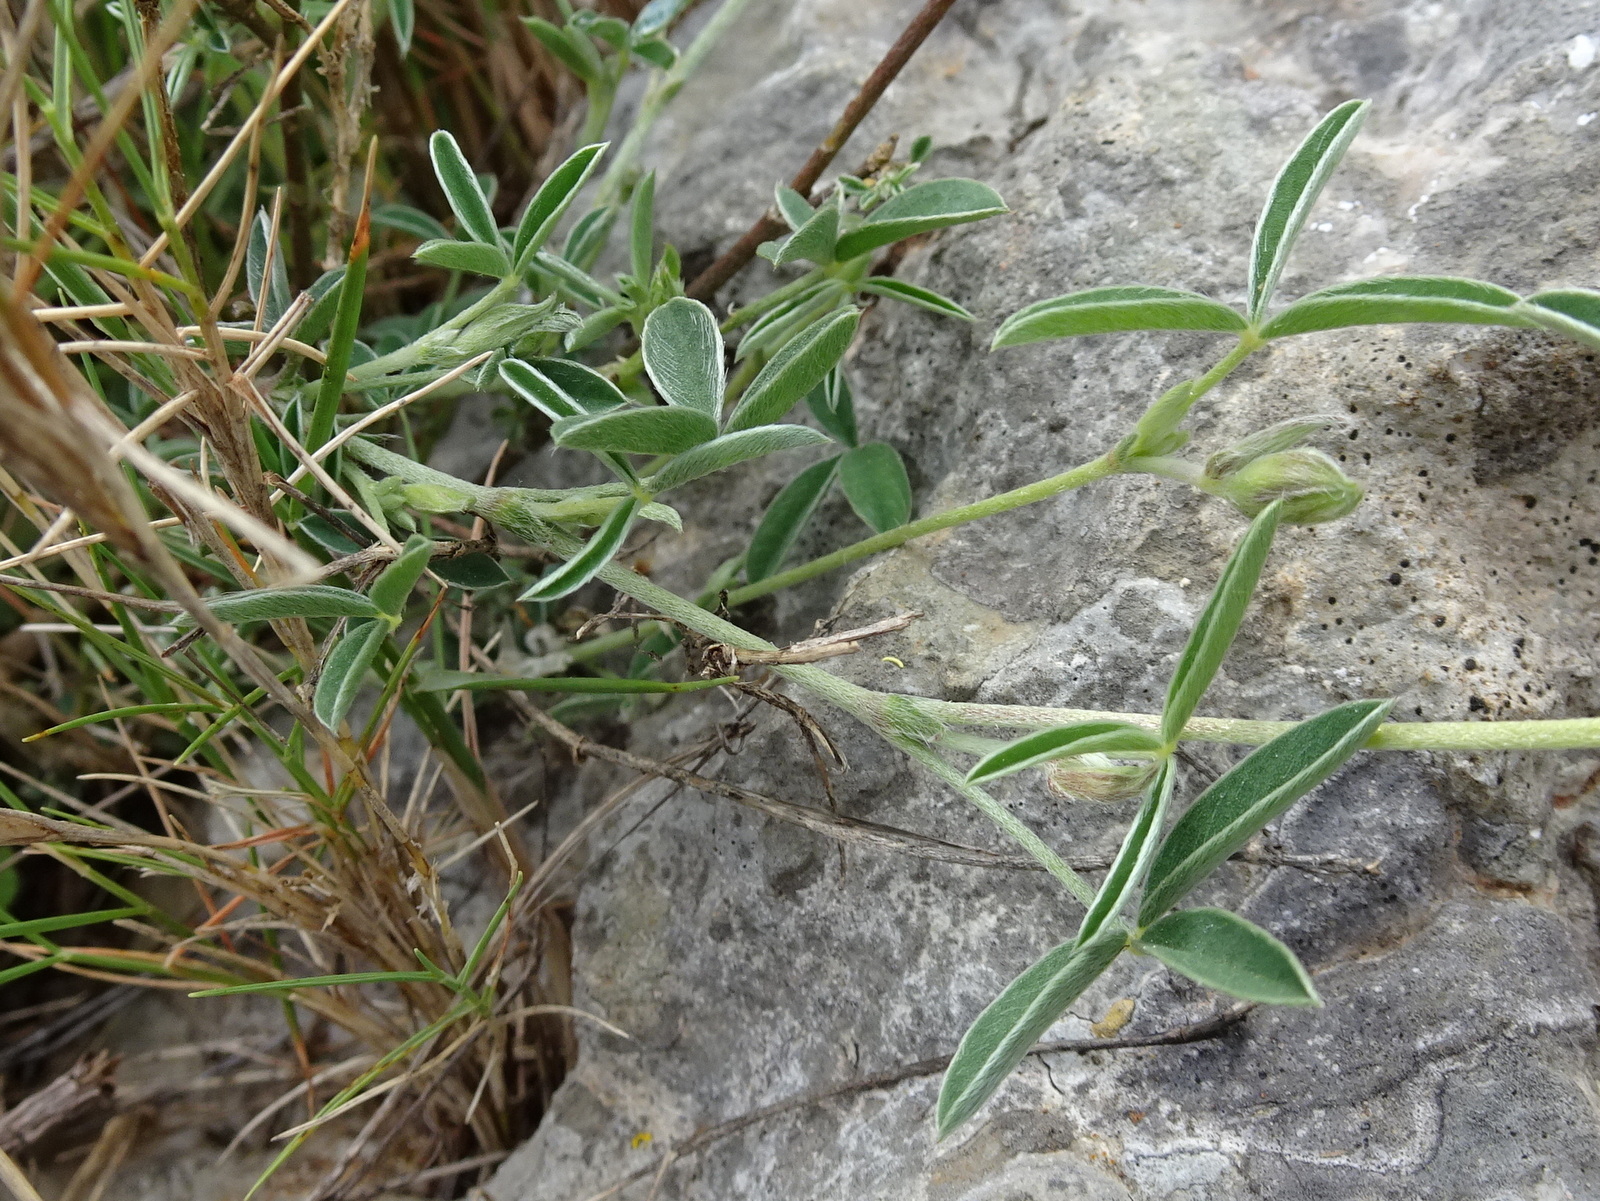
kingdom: Plantae
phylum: Tracheophyta
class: Magnoliopsida
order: Fabales
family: Fabaceae
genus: Argyrolobium
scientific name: Argyrolobium zanonii
